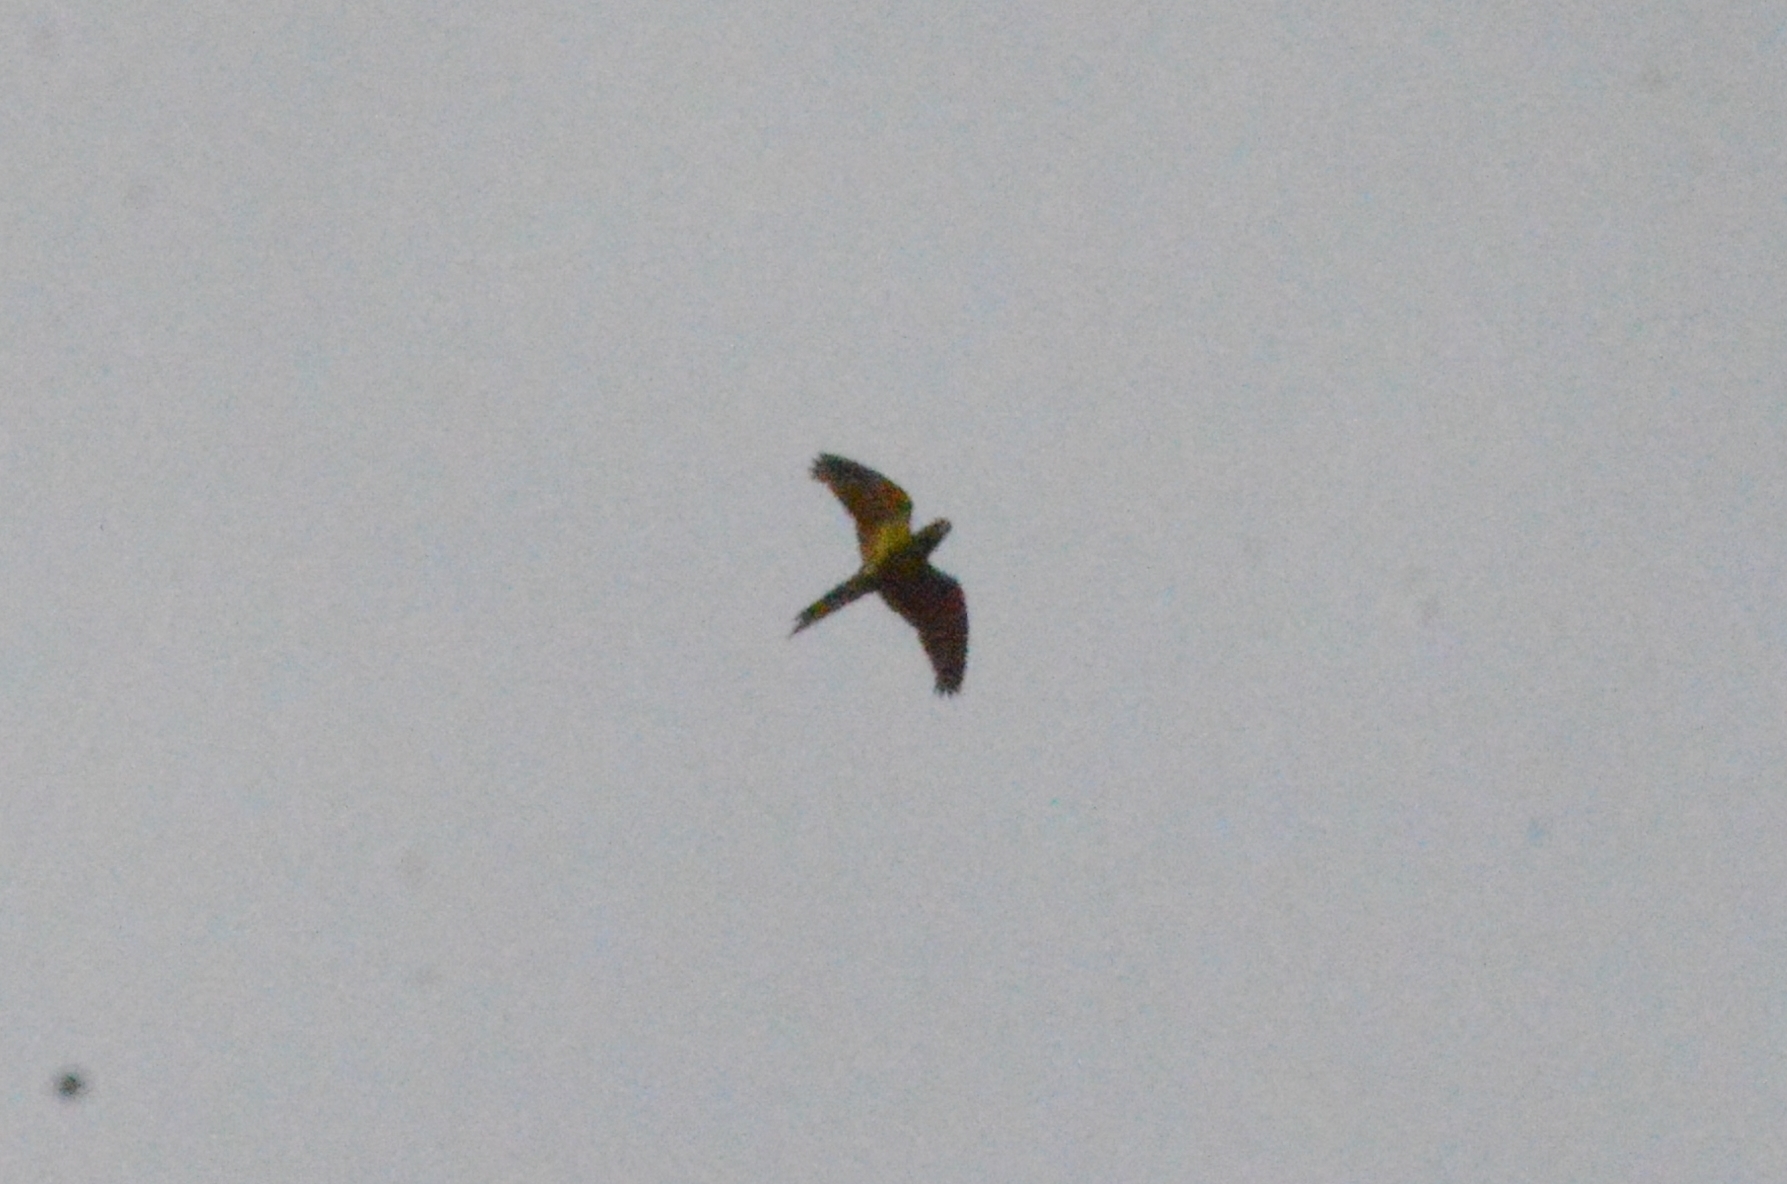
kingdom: Animalia
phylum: Chordata
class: Aves
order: Psittaciformes
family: Psittacidae
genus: Aratinga
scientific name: Aratinga leucophthalma
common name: White-eyed parakeet
